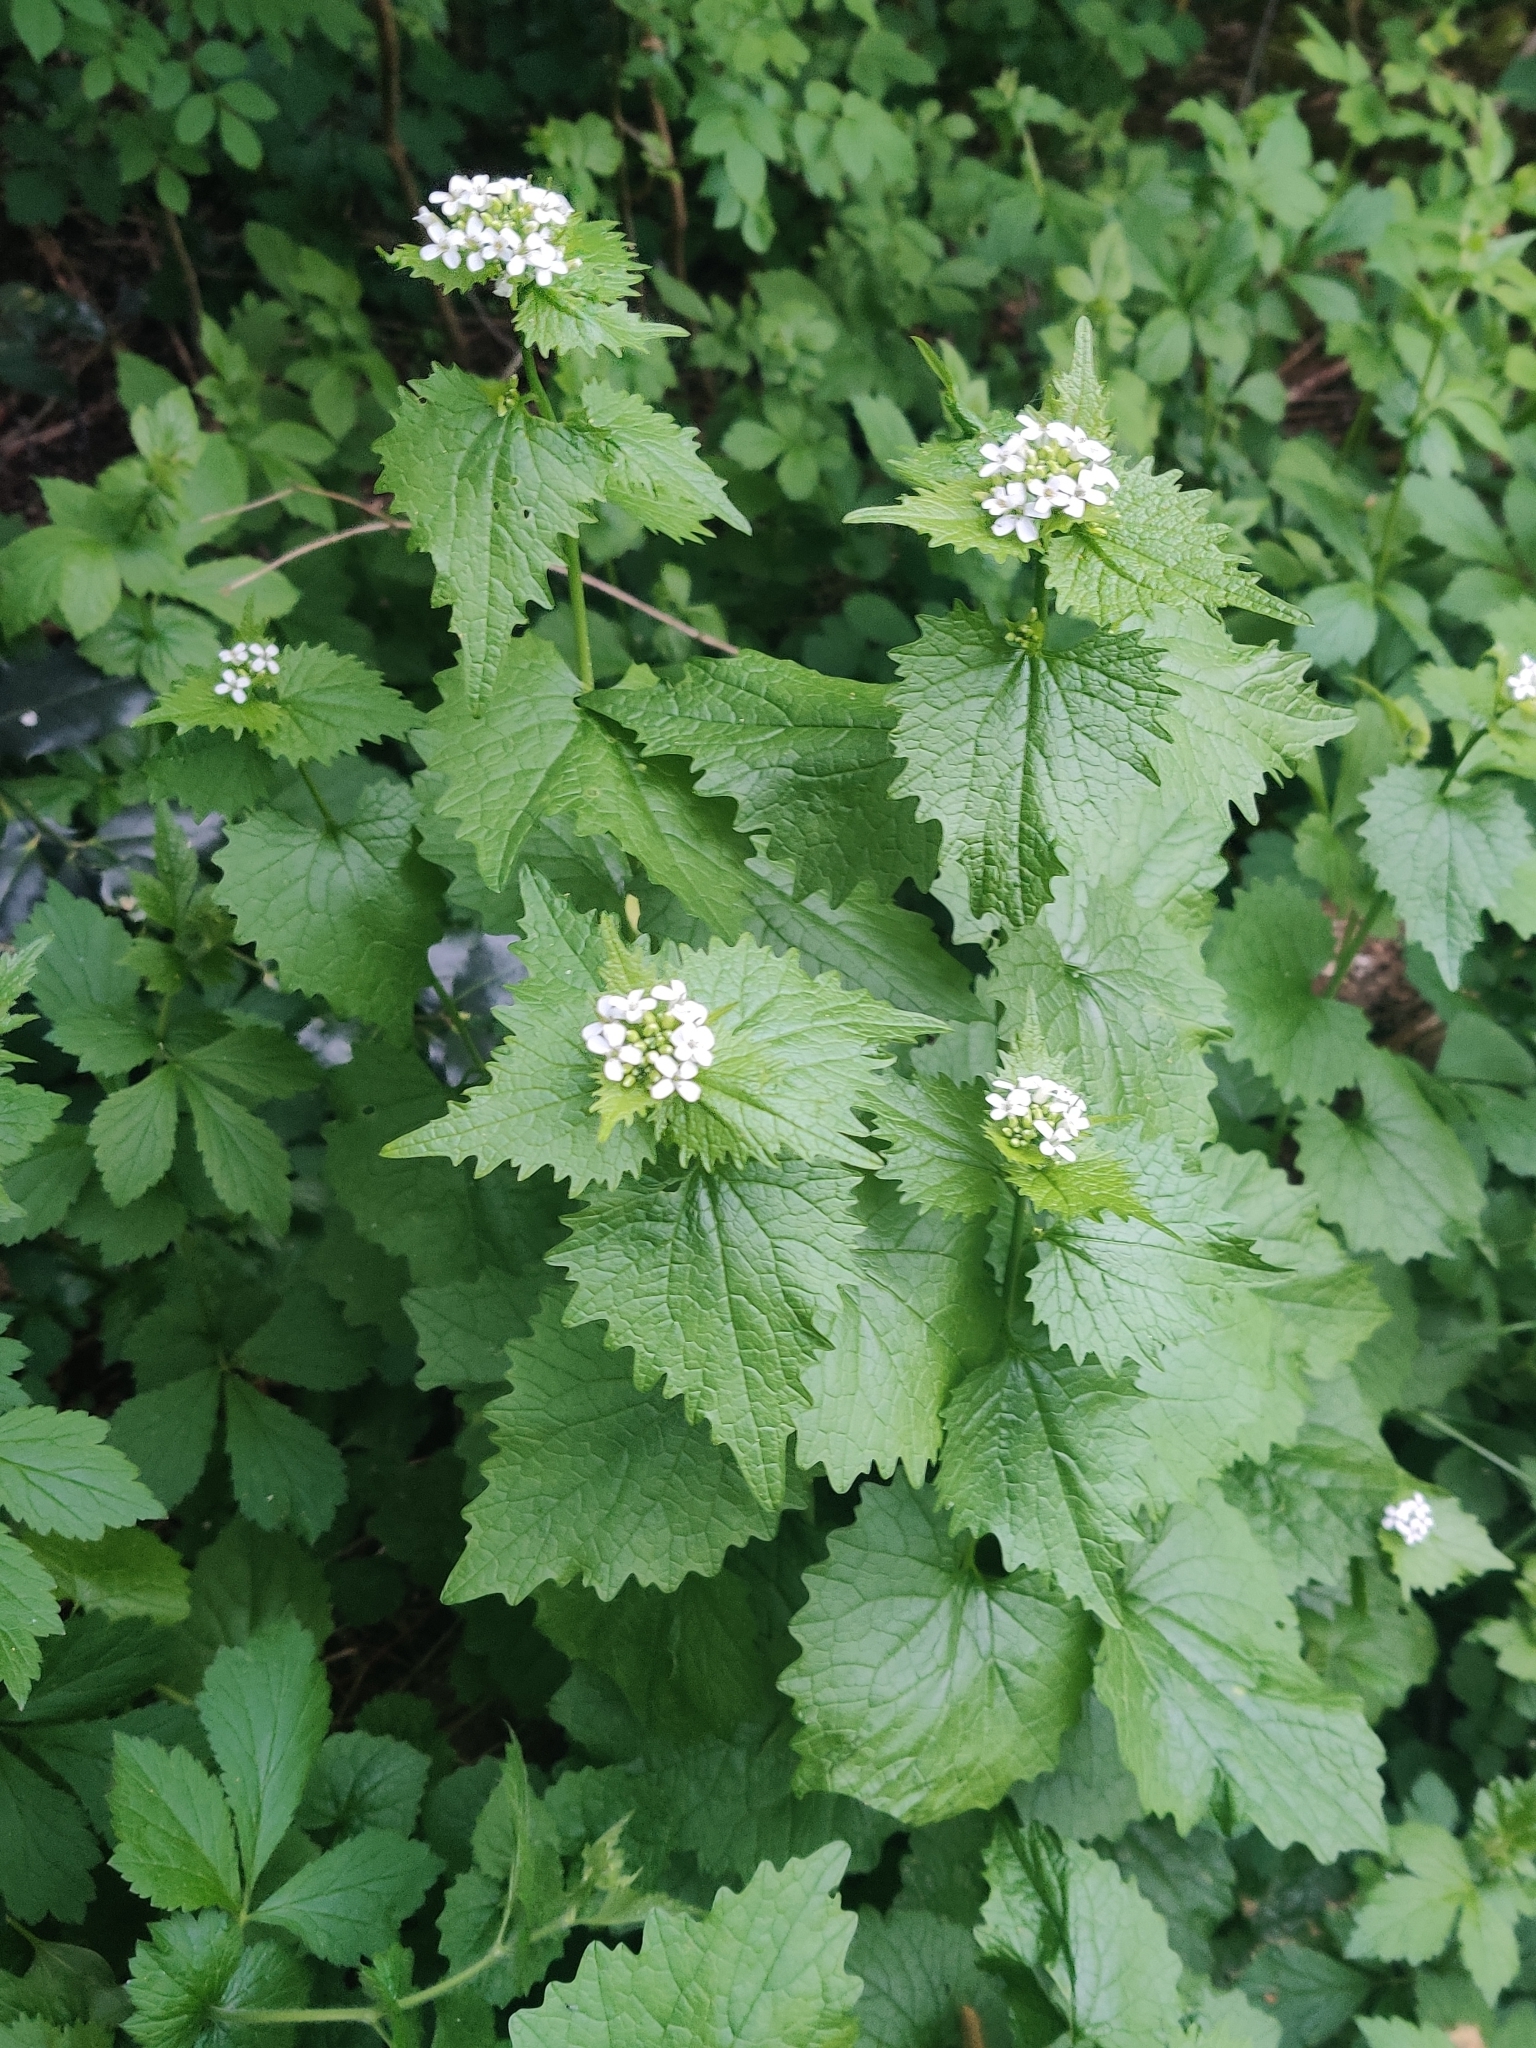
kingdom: Plantae
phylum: Tracheophyta
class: Magnoliopsida
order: Brassicales
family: Brassicaceae
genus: Alliaria
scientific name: Alliaria petiolata
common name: Garlic mustard
